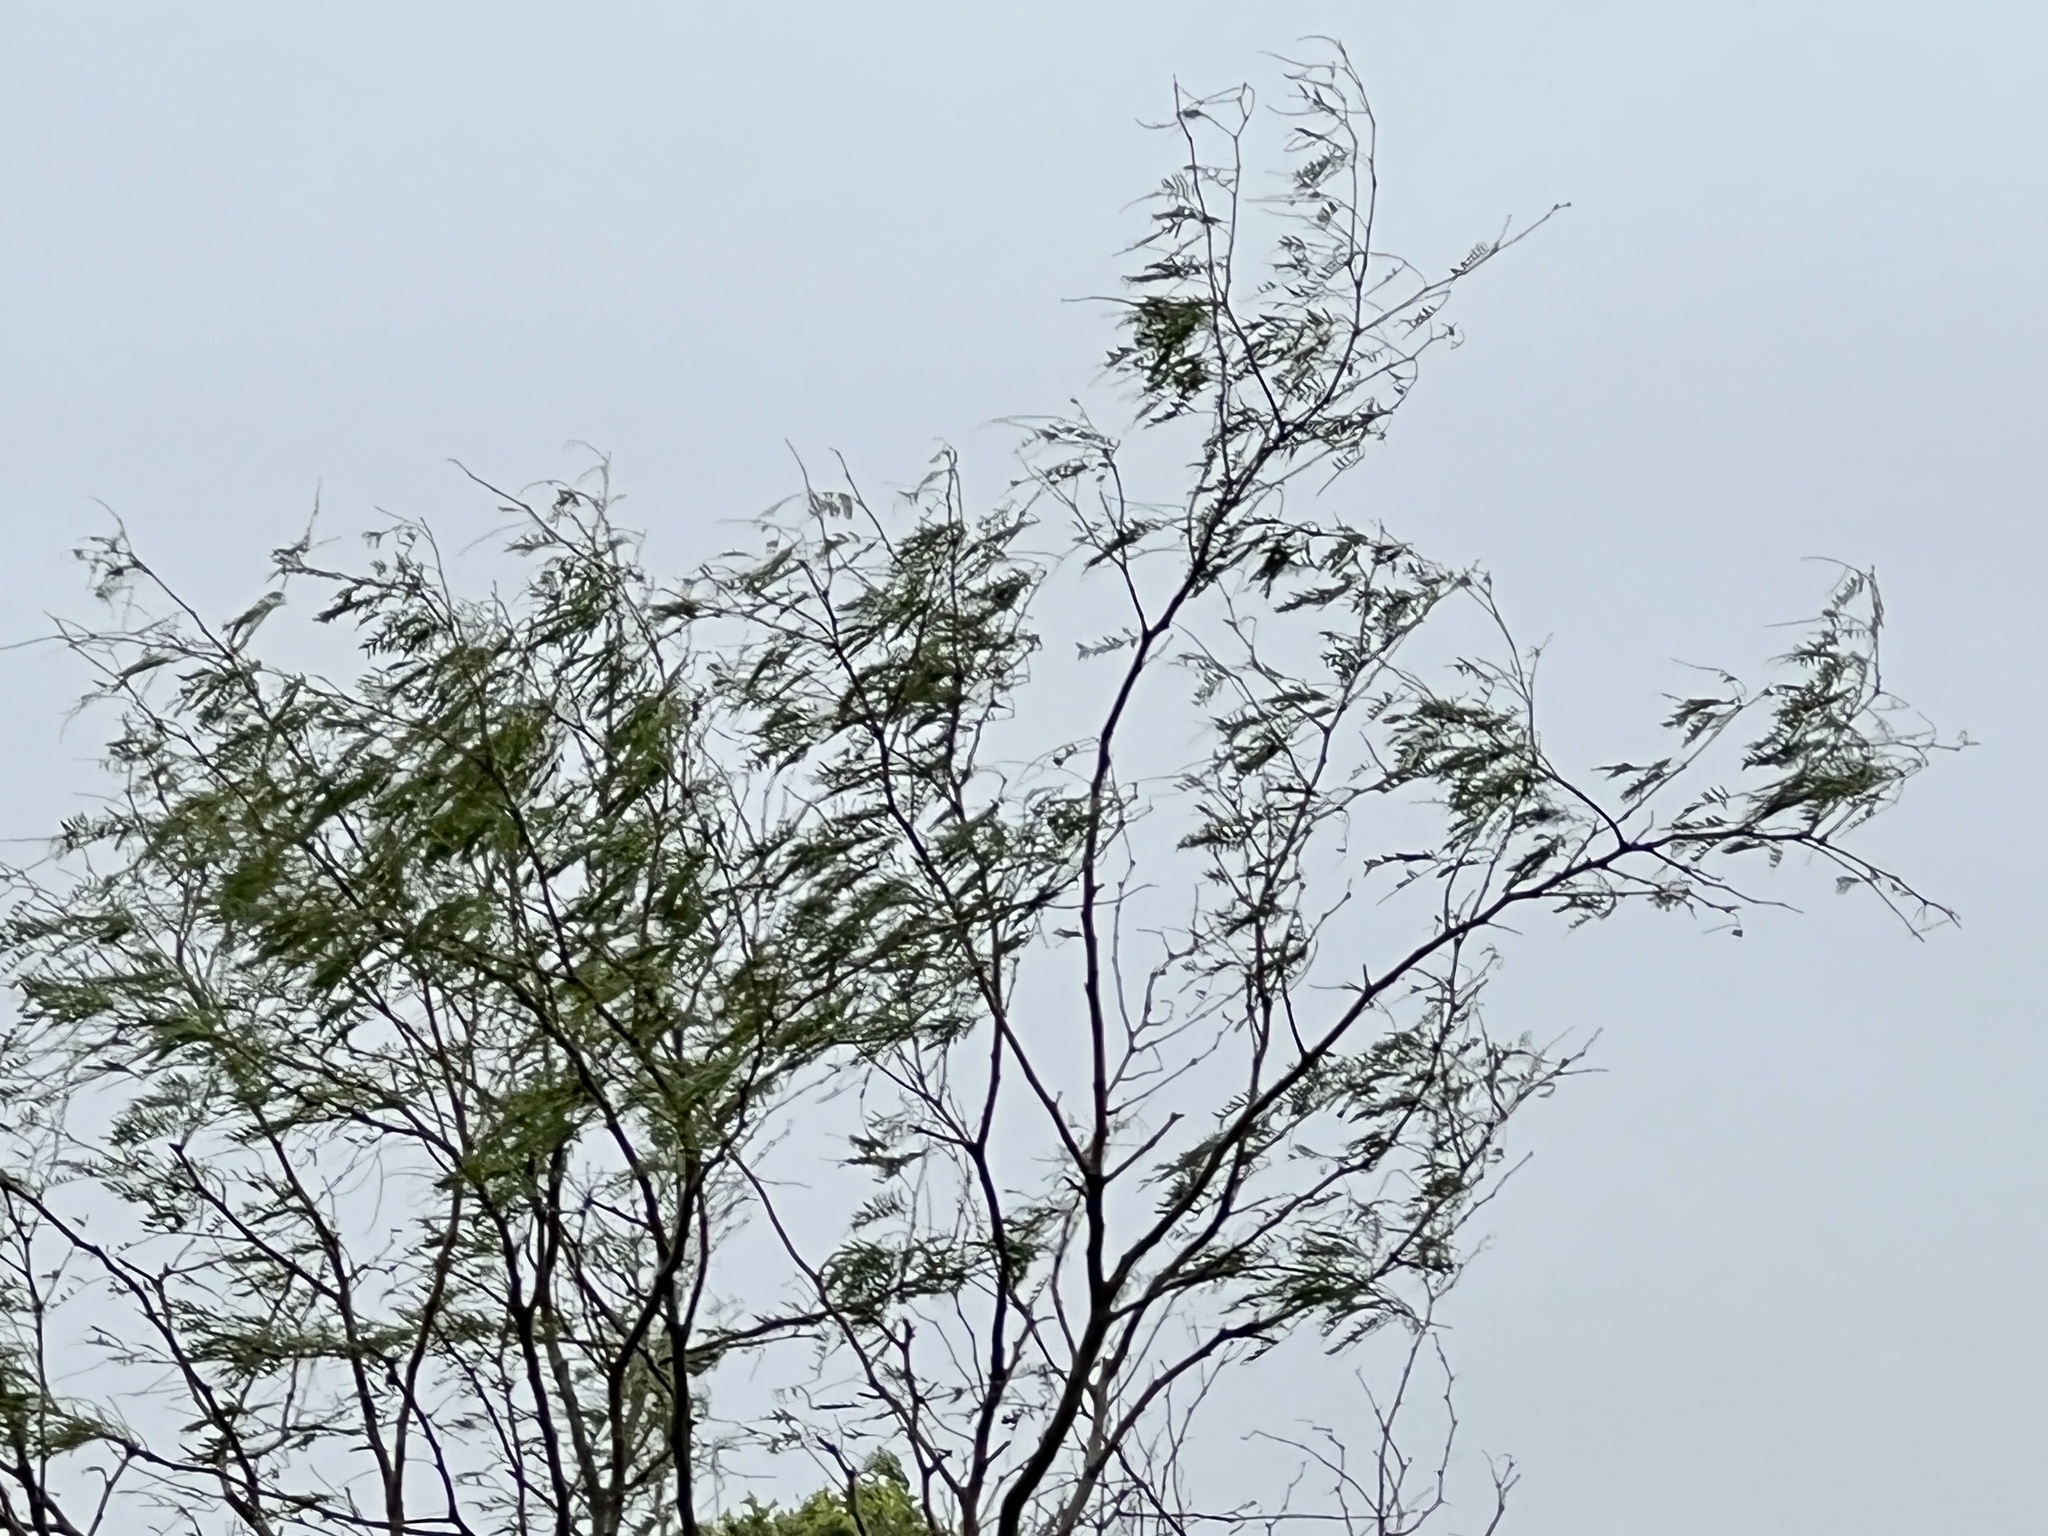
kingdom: Plantae
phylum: Tracheophyta
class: Magnoliopsida
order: Fabales
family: Fabaceae
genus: Prosopis
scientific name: Prosopis glandulosa
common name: Honey mesquite
